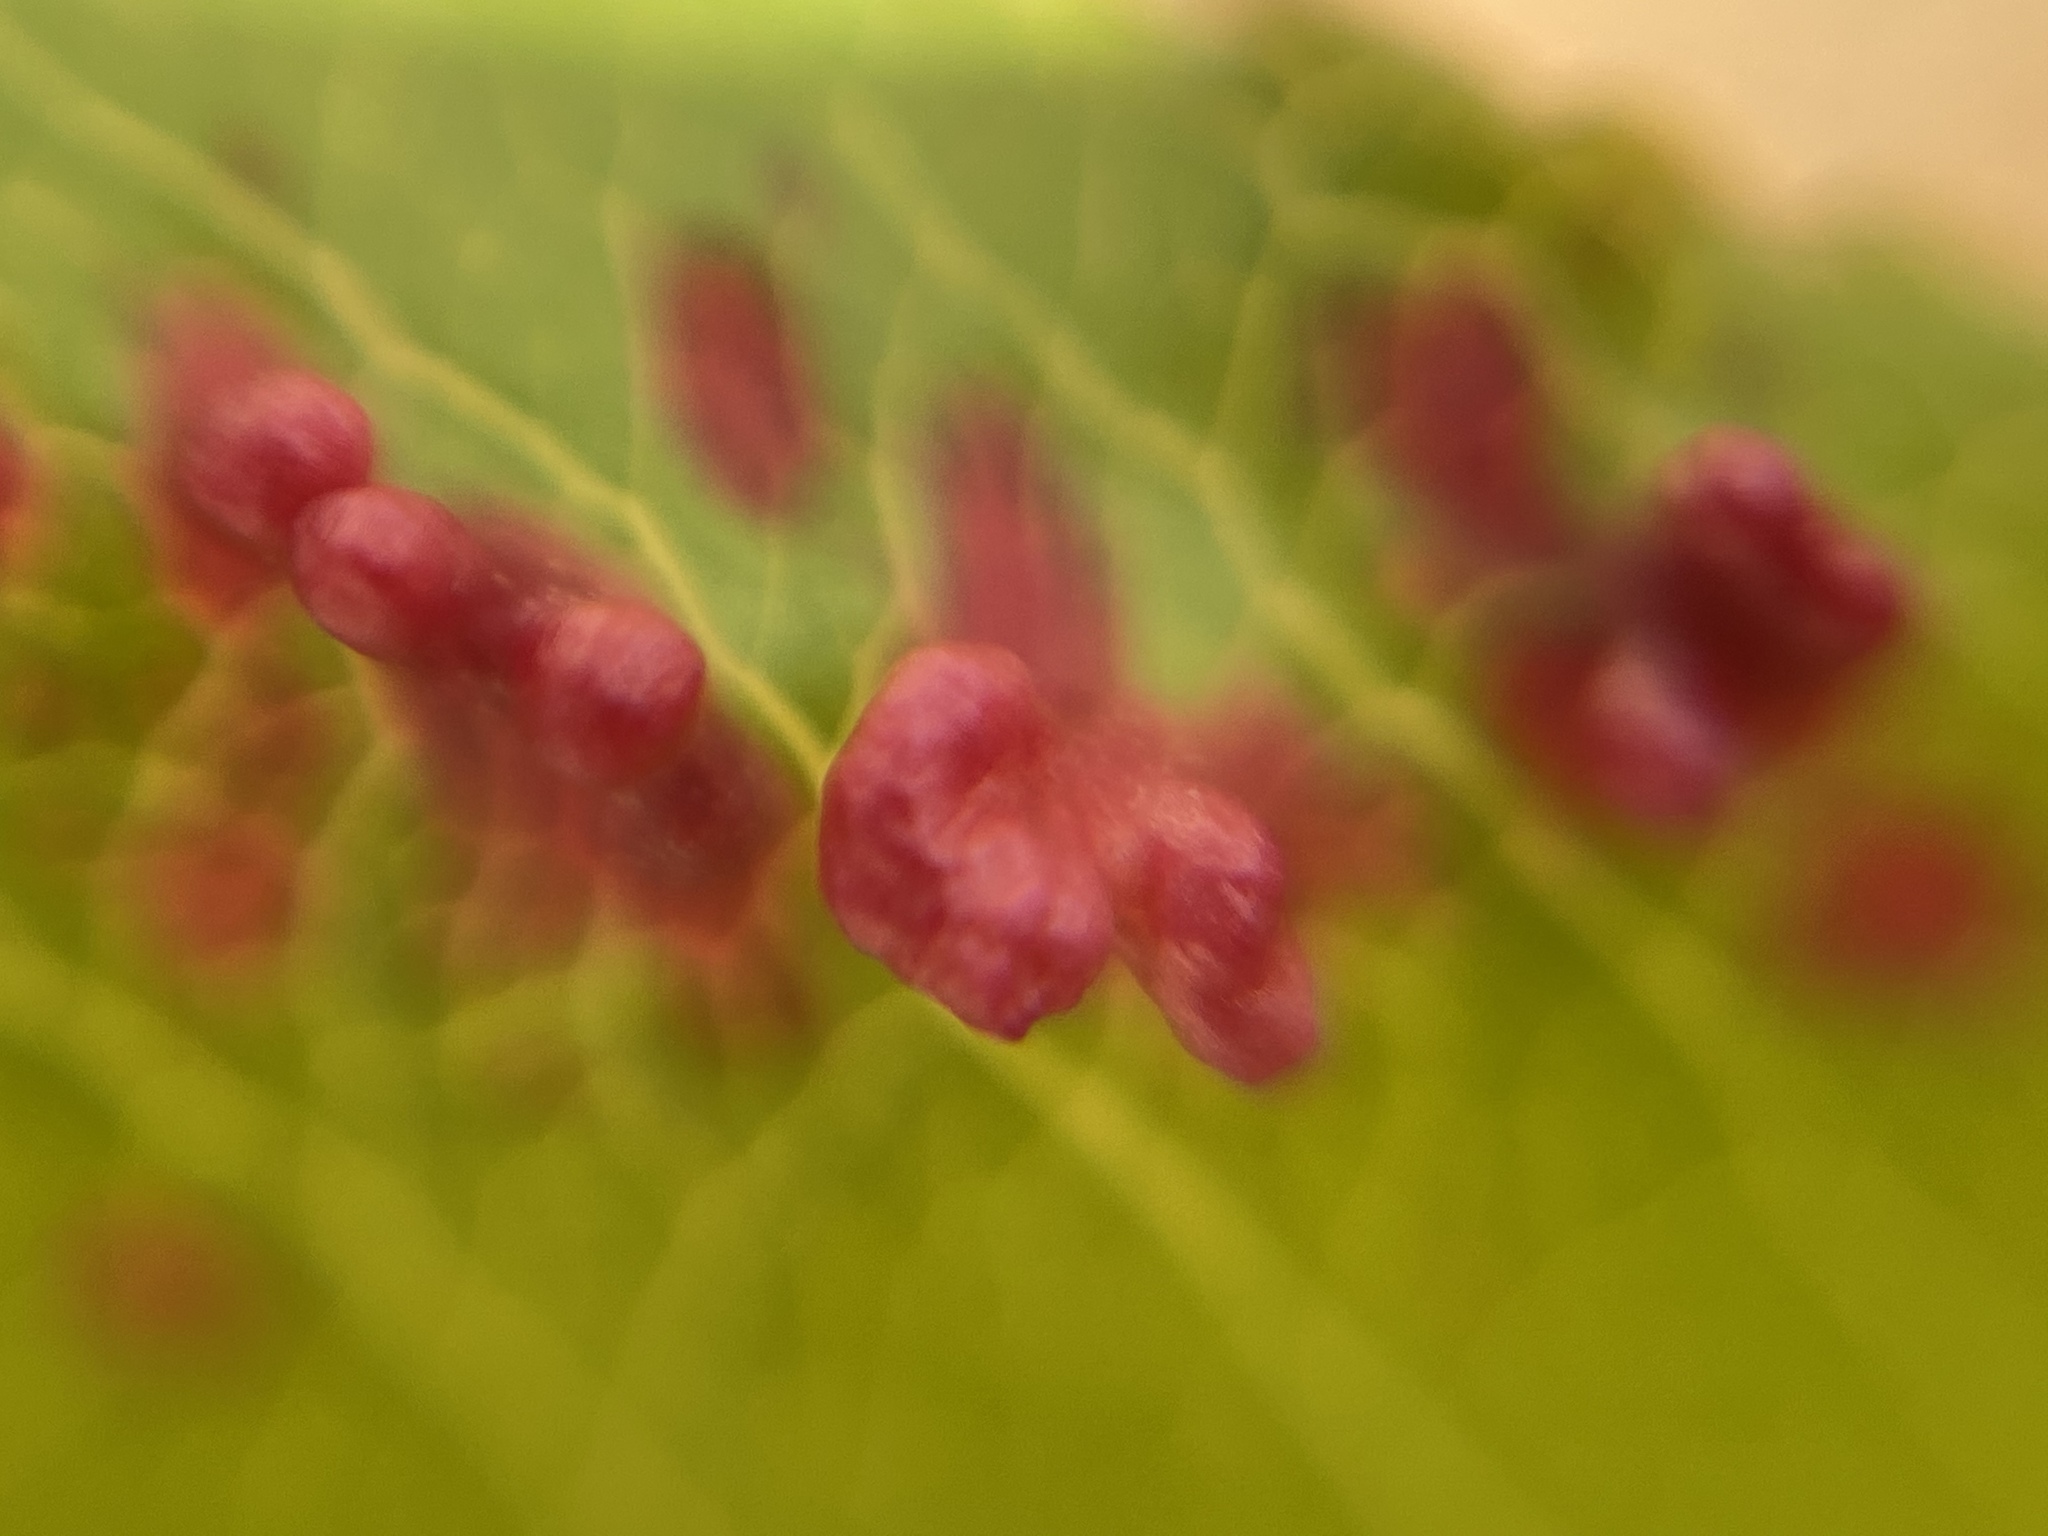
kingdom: Animalia
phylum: Arthropoda
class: Arachnida
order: Trombidiformes
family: Eriophyidae
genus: Eriophyes
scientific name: Eriophyes
